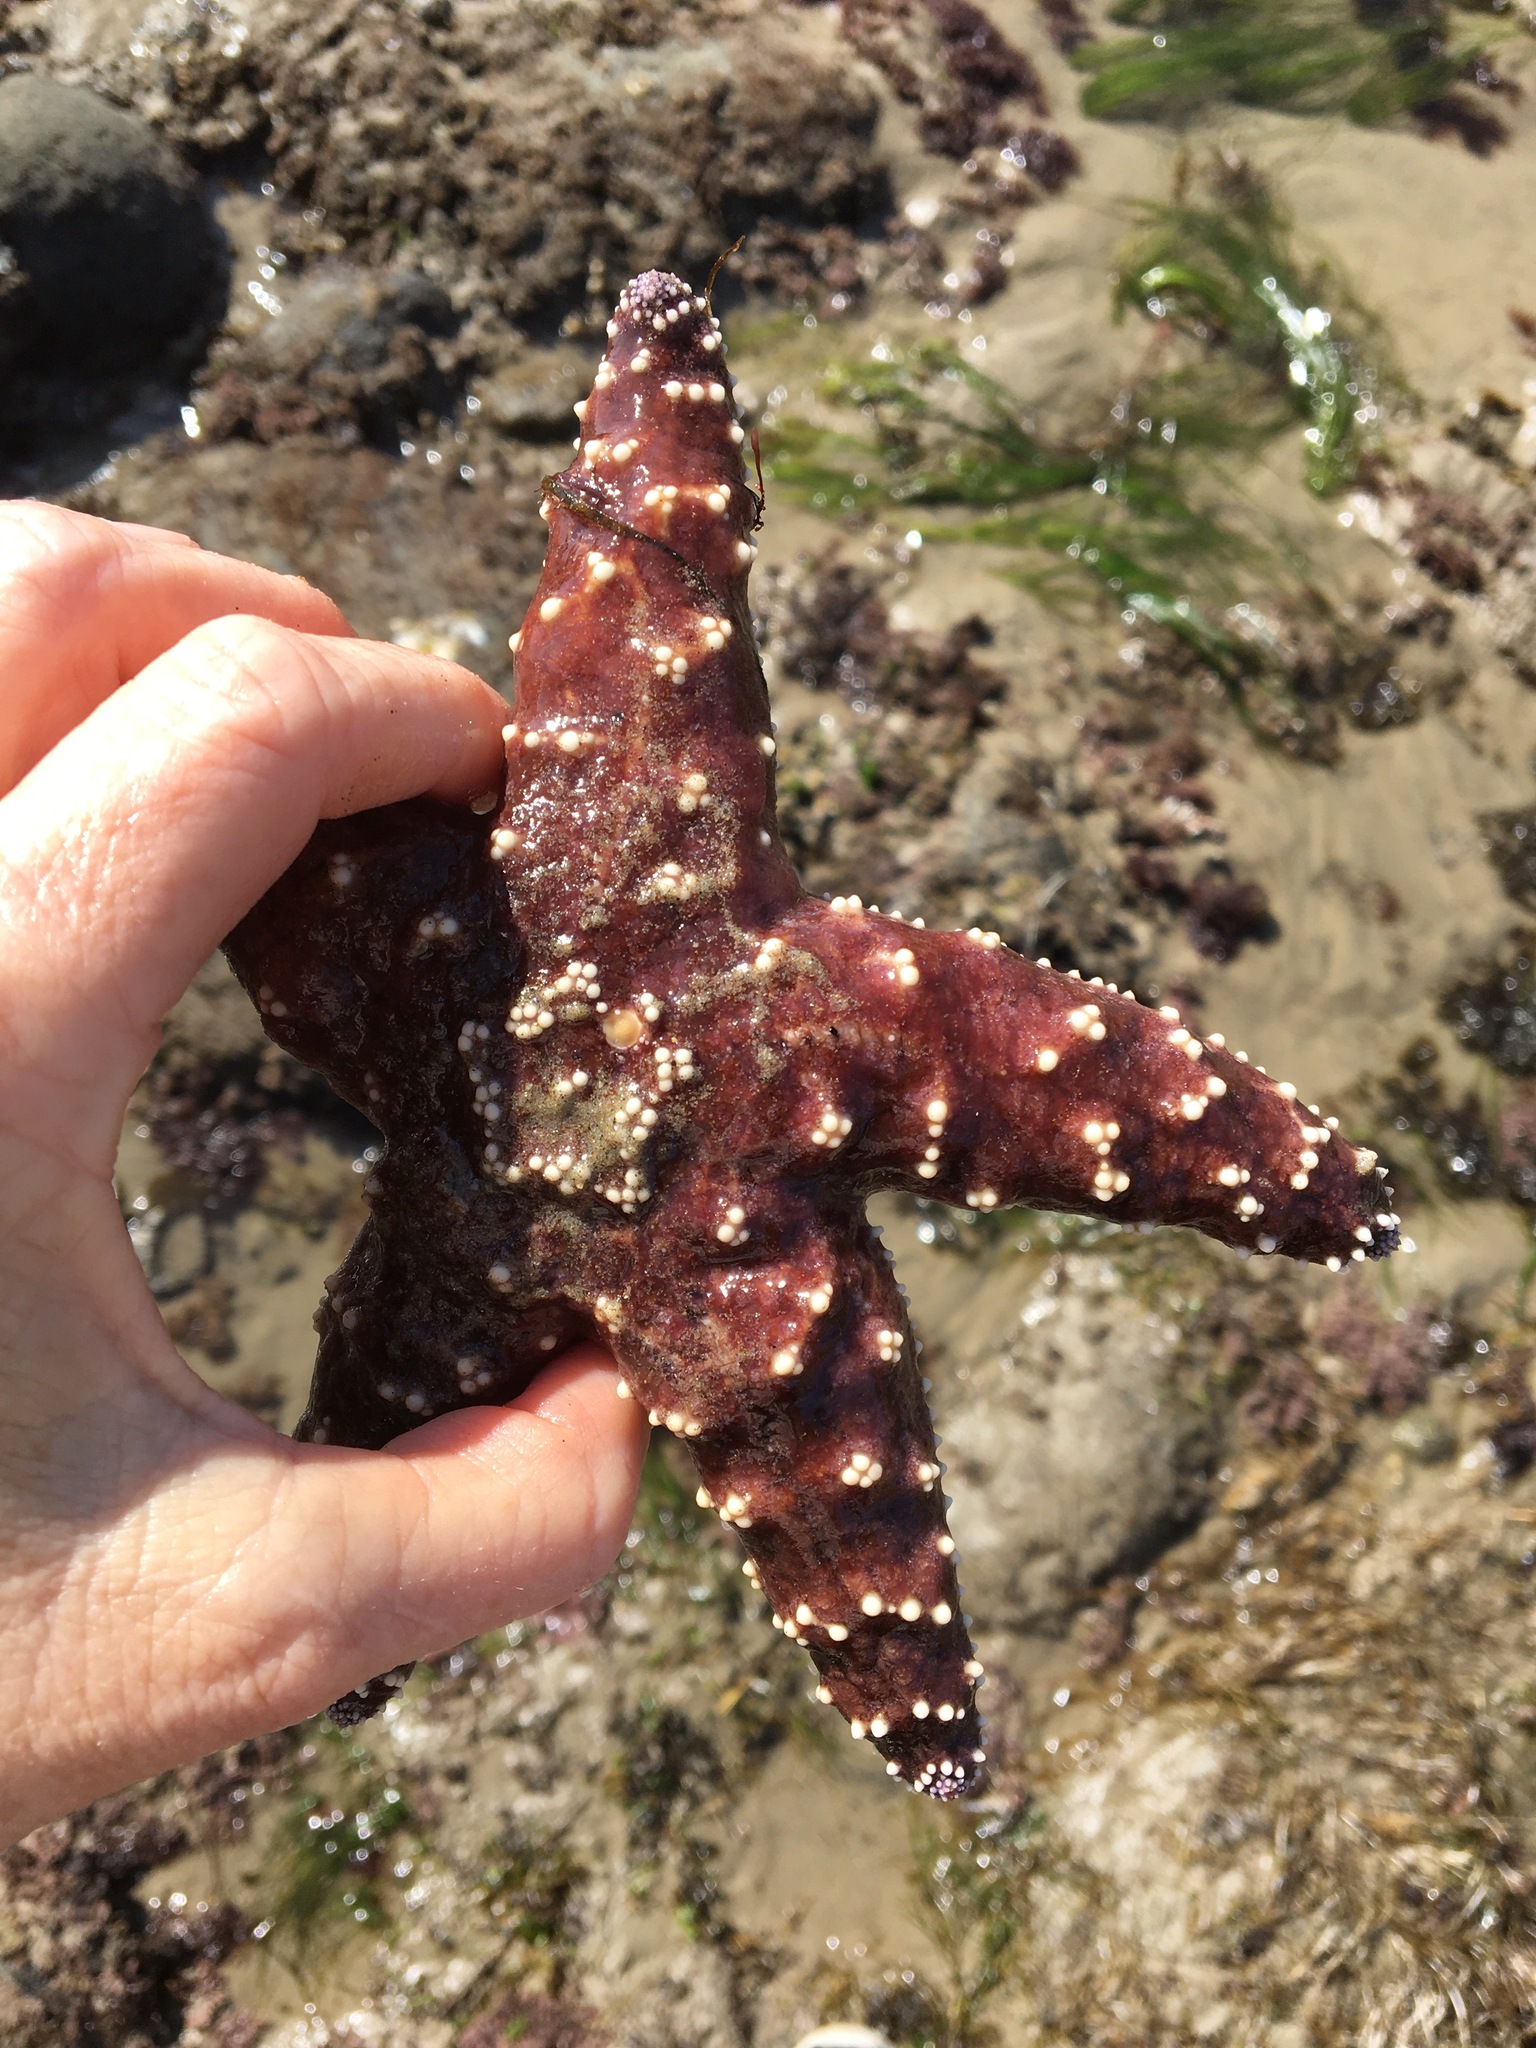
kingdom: Animalia
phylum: Echinodermata
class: Asteroidea
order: Forcipulatida
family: Asteriidae
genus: Pisaster
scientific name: Pisaster ochraceus
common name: Ochre stars
